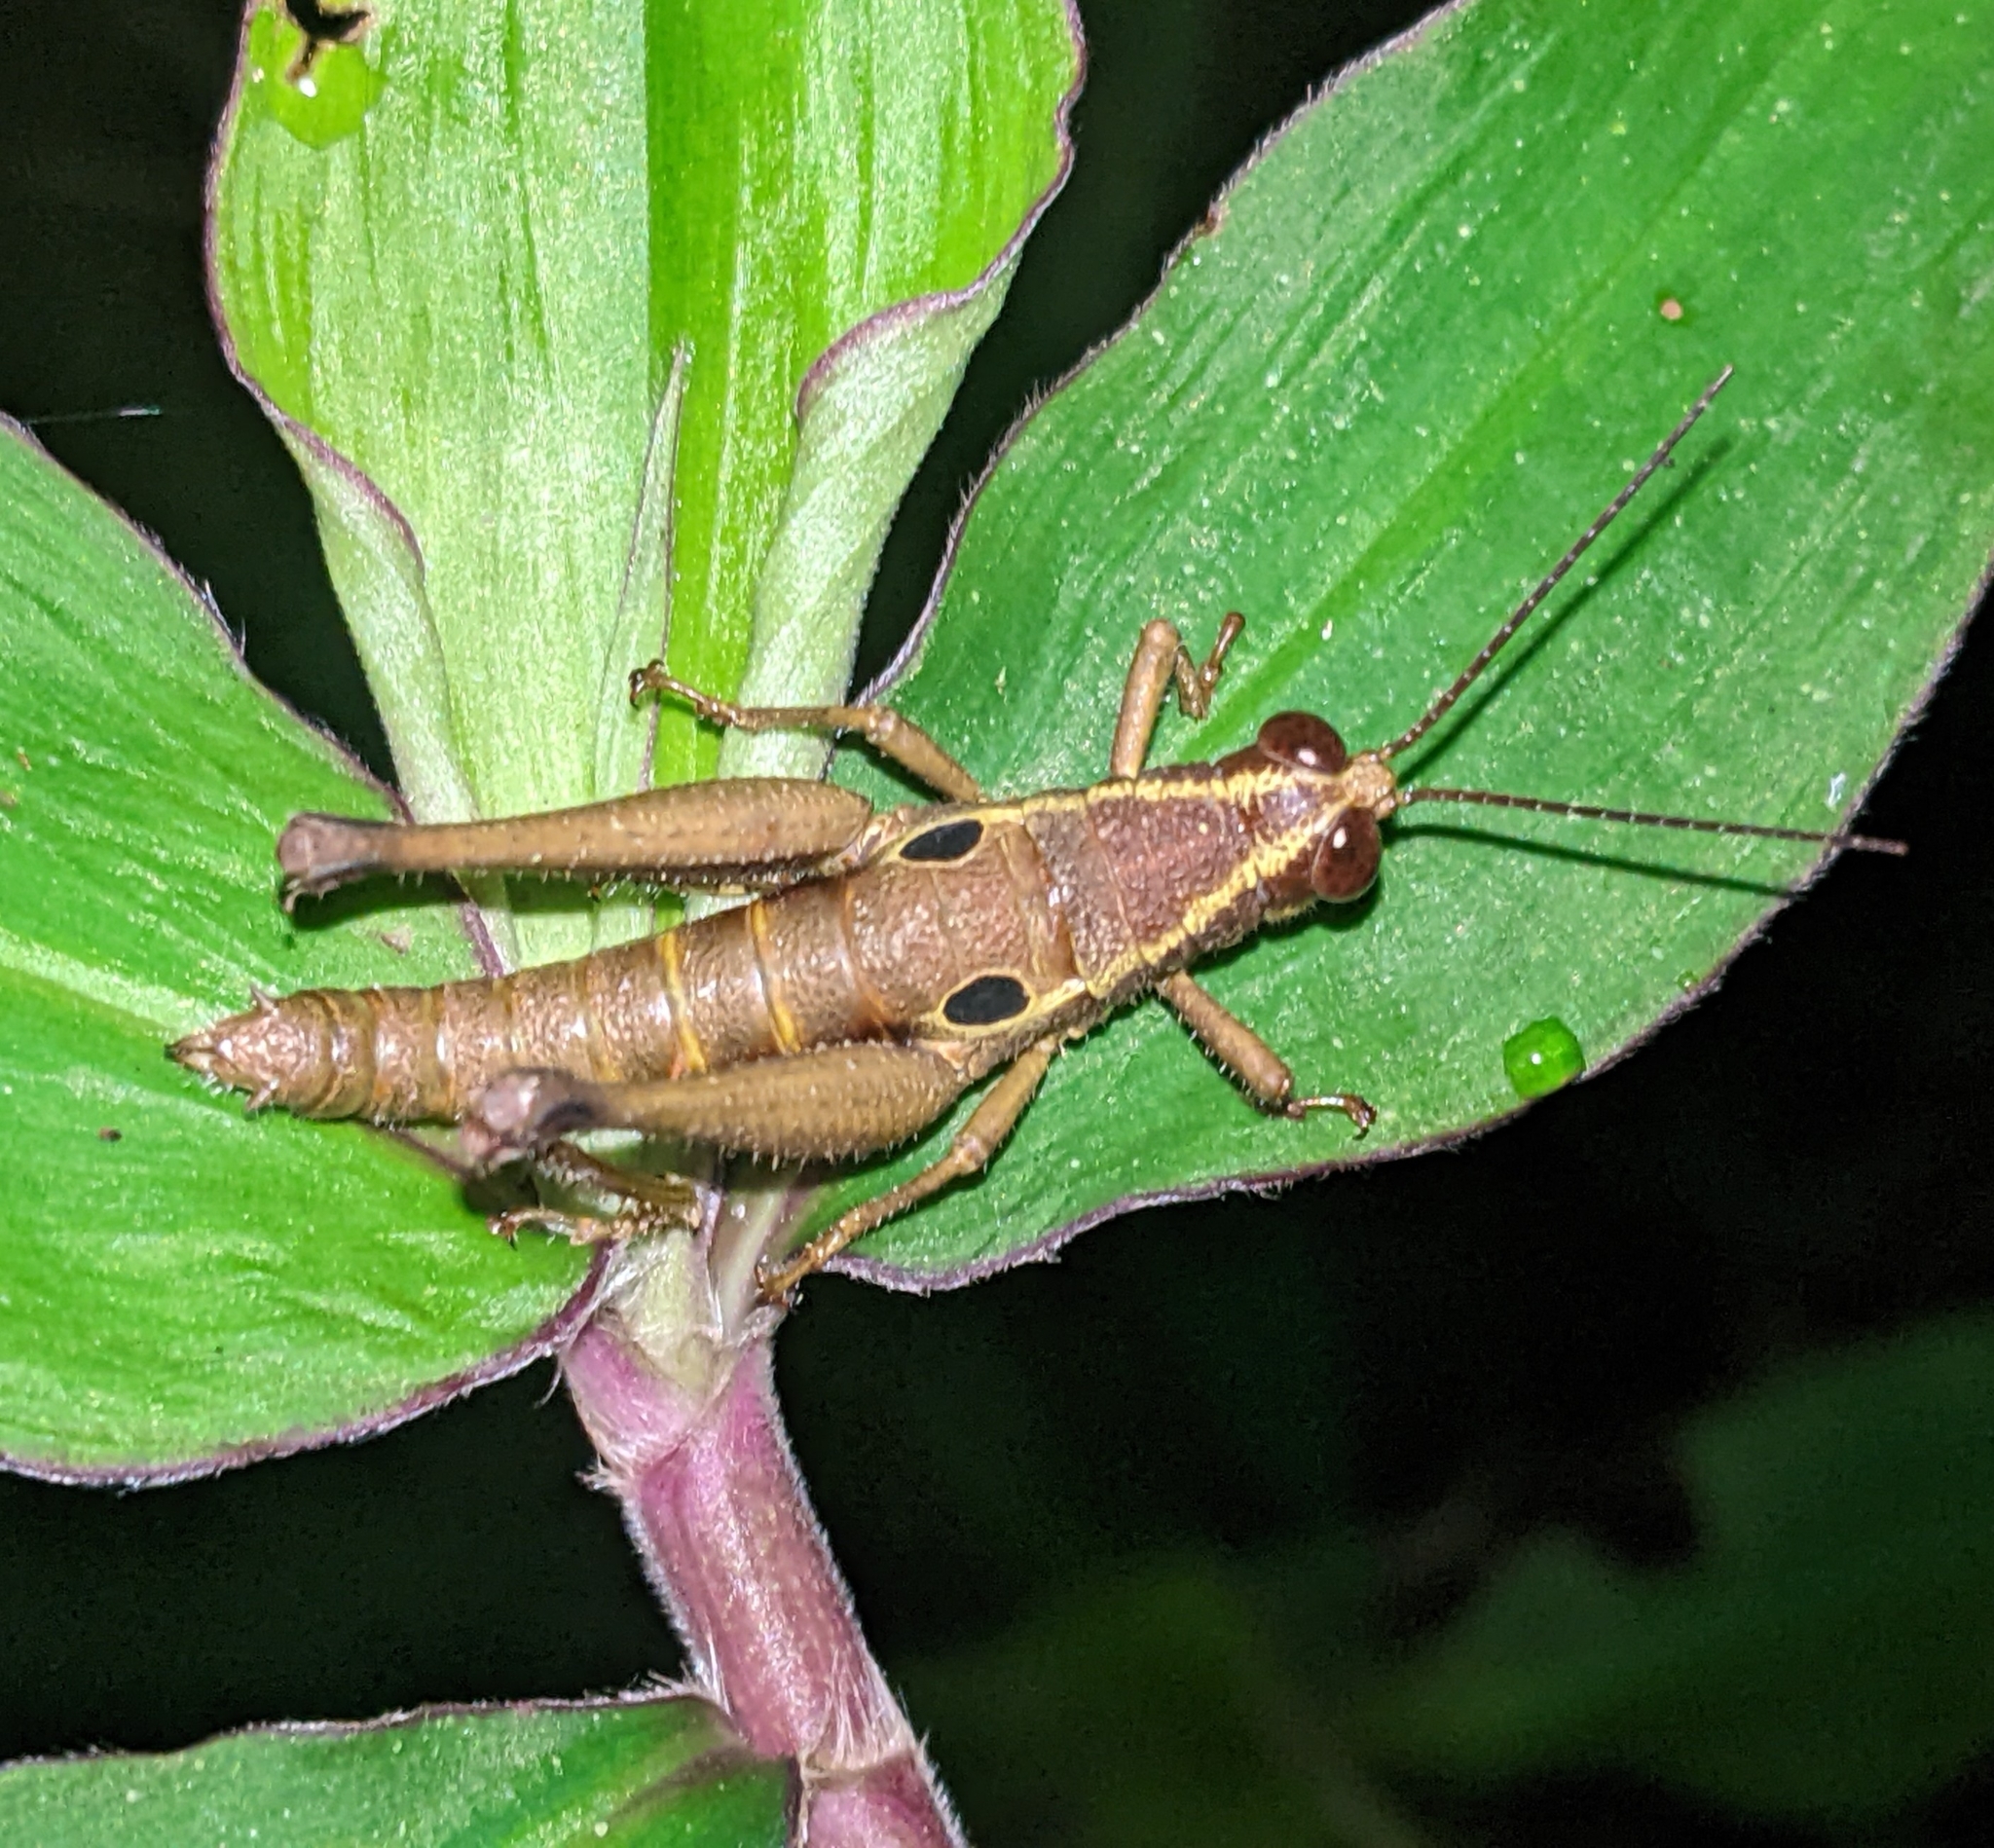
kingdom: Animalia
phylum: Arthropoda
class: Insecta
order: Orthoptera
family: Acrididae
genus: Ommatolampis
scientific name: Ommatolampis perspicillata
